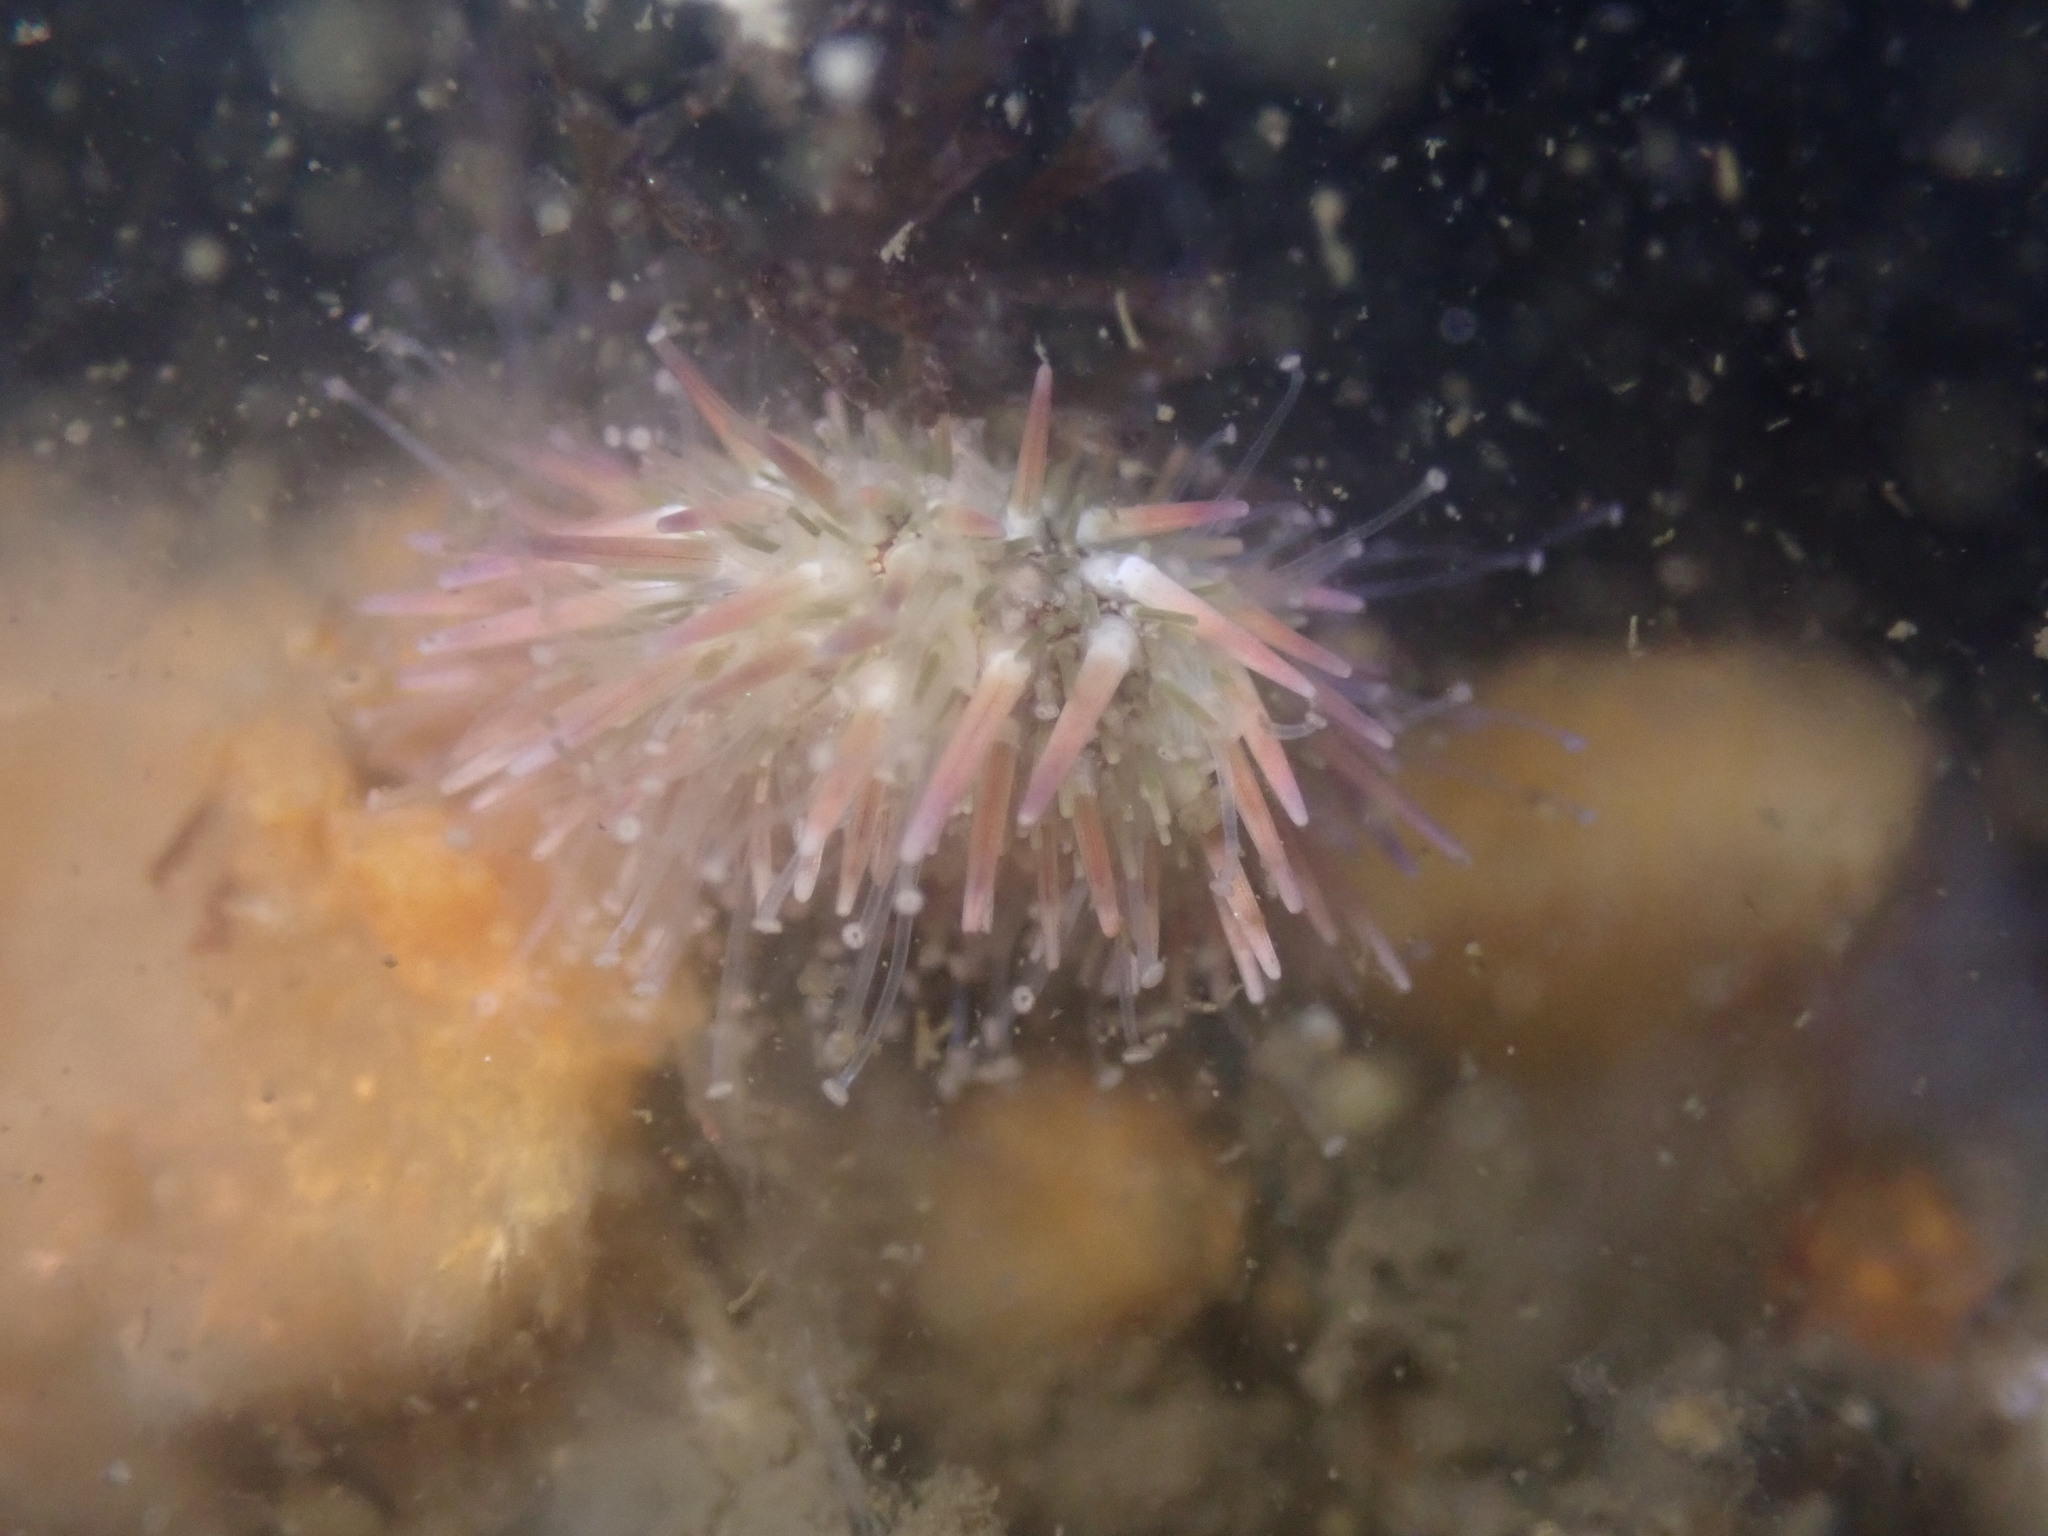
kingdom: Animalia
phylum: Echinodermata
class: Echinoidea
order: Camarodonta
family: Strongylocentrotidae
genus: Strongylocentrotus
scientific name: Strongylocentrotus purpuratus
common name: Purple sea urchin
